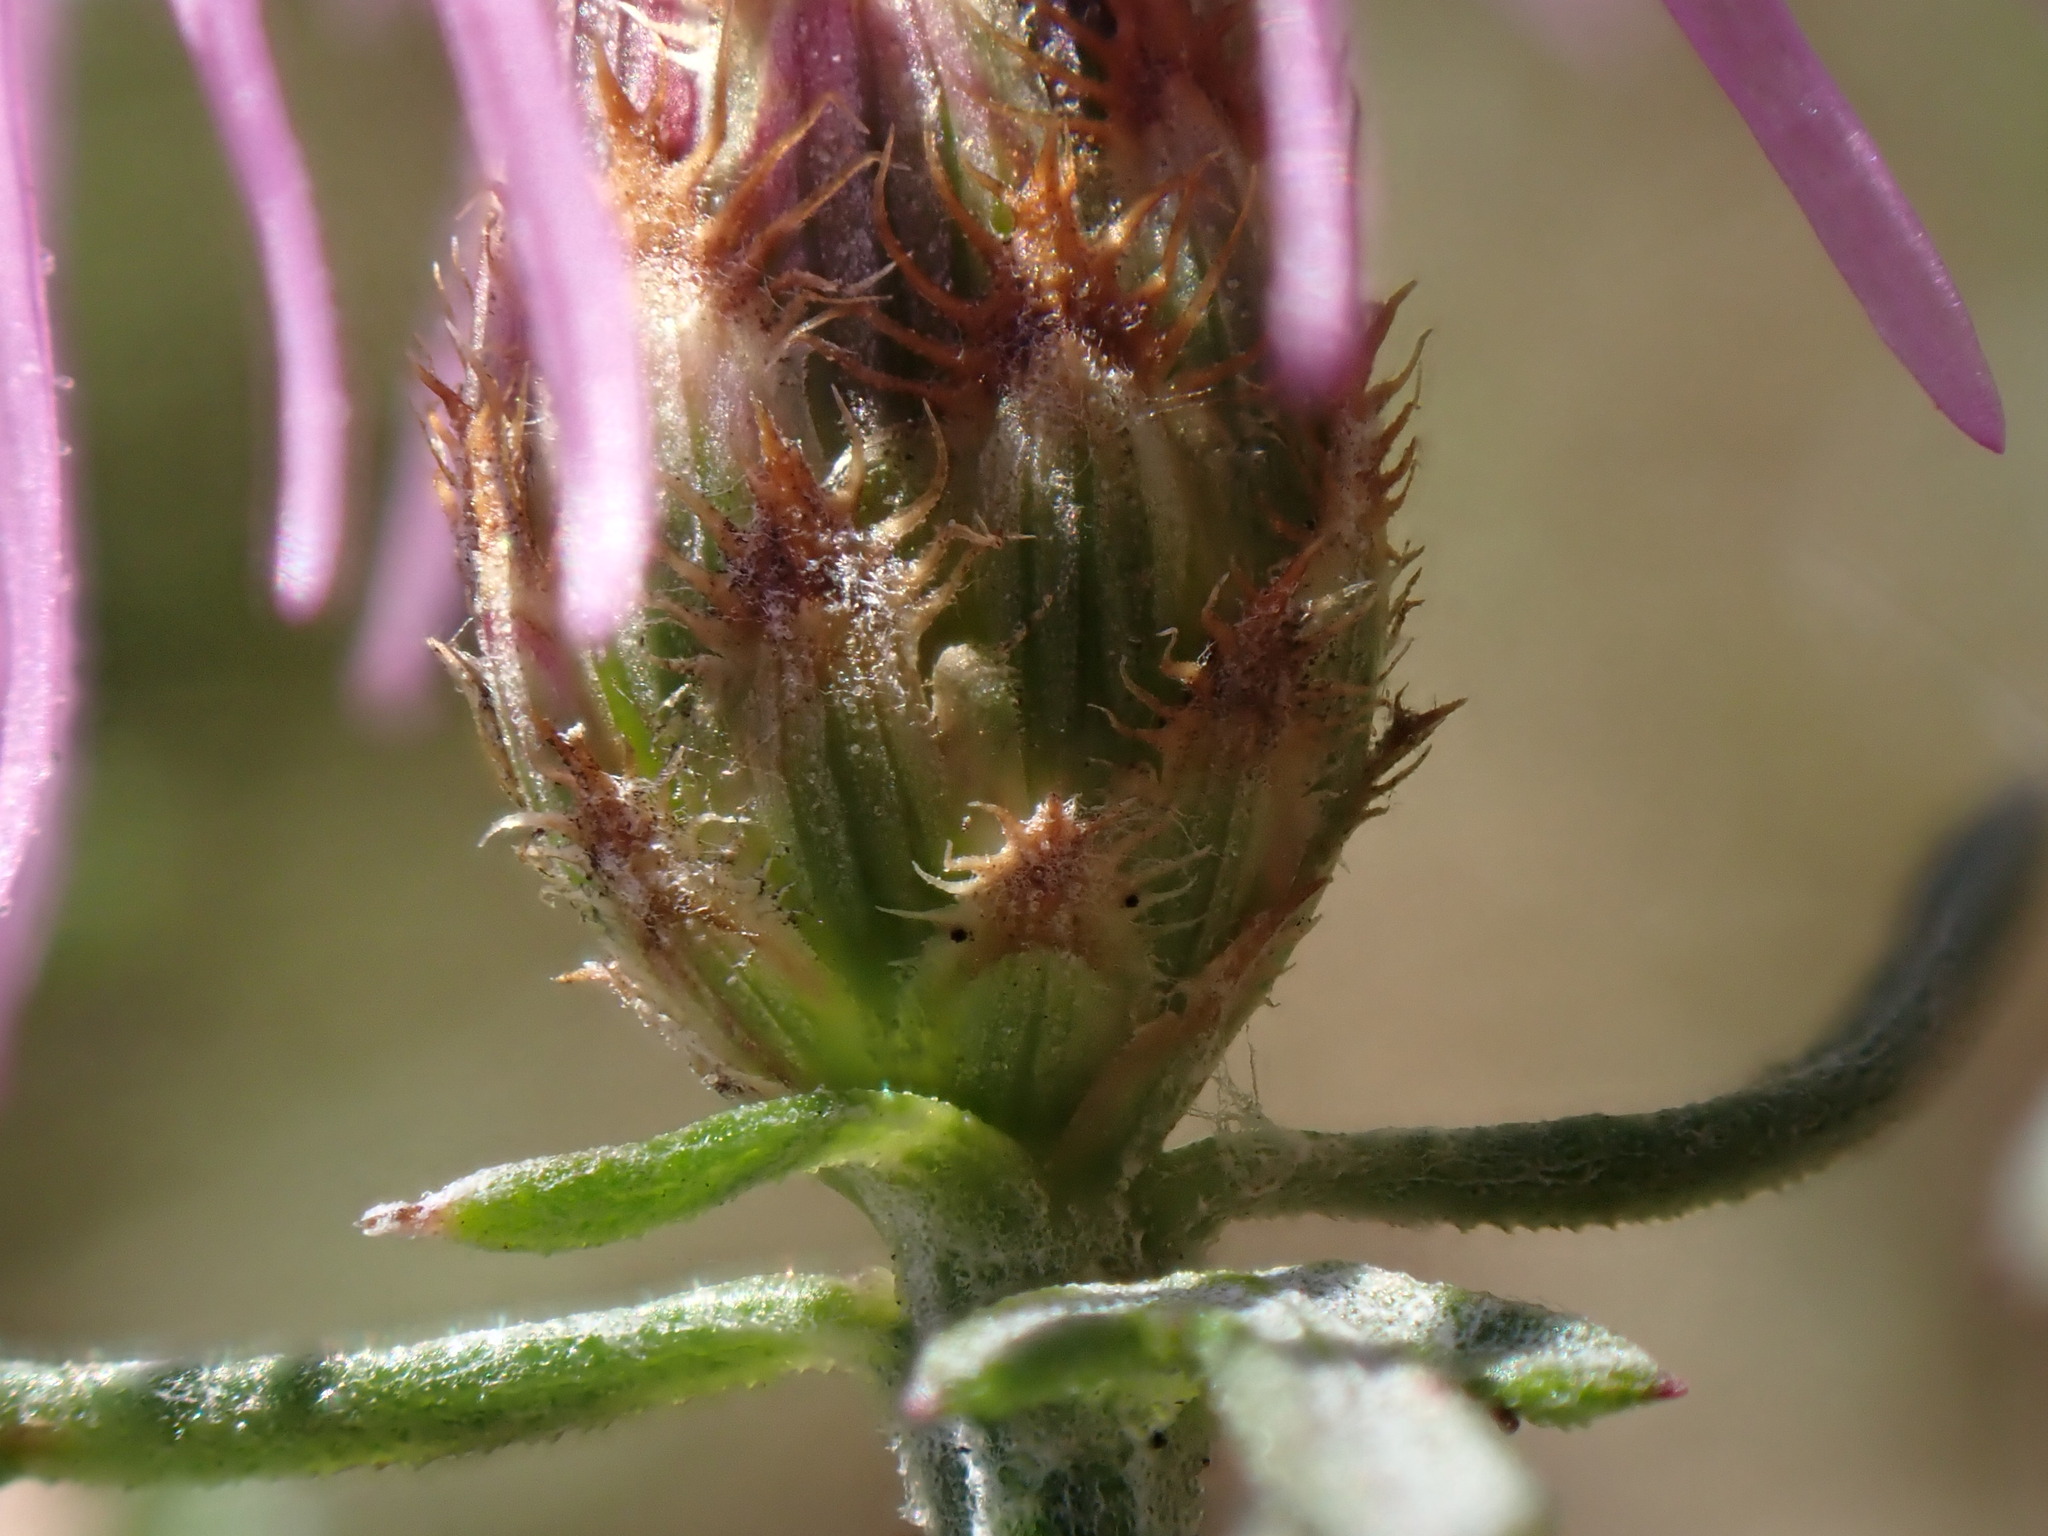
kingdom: Plantae
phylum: Tracheophyta
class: Magnoliopsida
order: Asterales
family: Asteraceae
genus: Centaurea
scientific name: Centaurea paniculata
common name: Jersey knapweed
